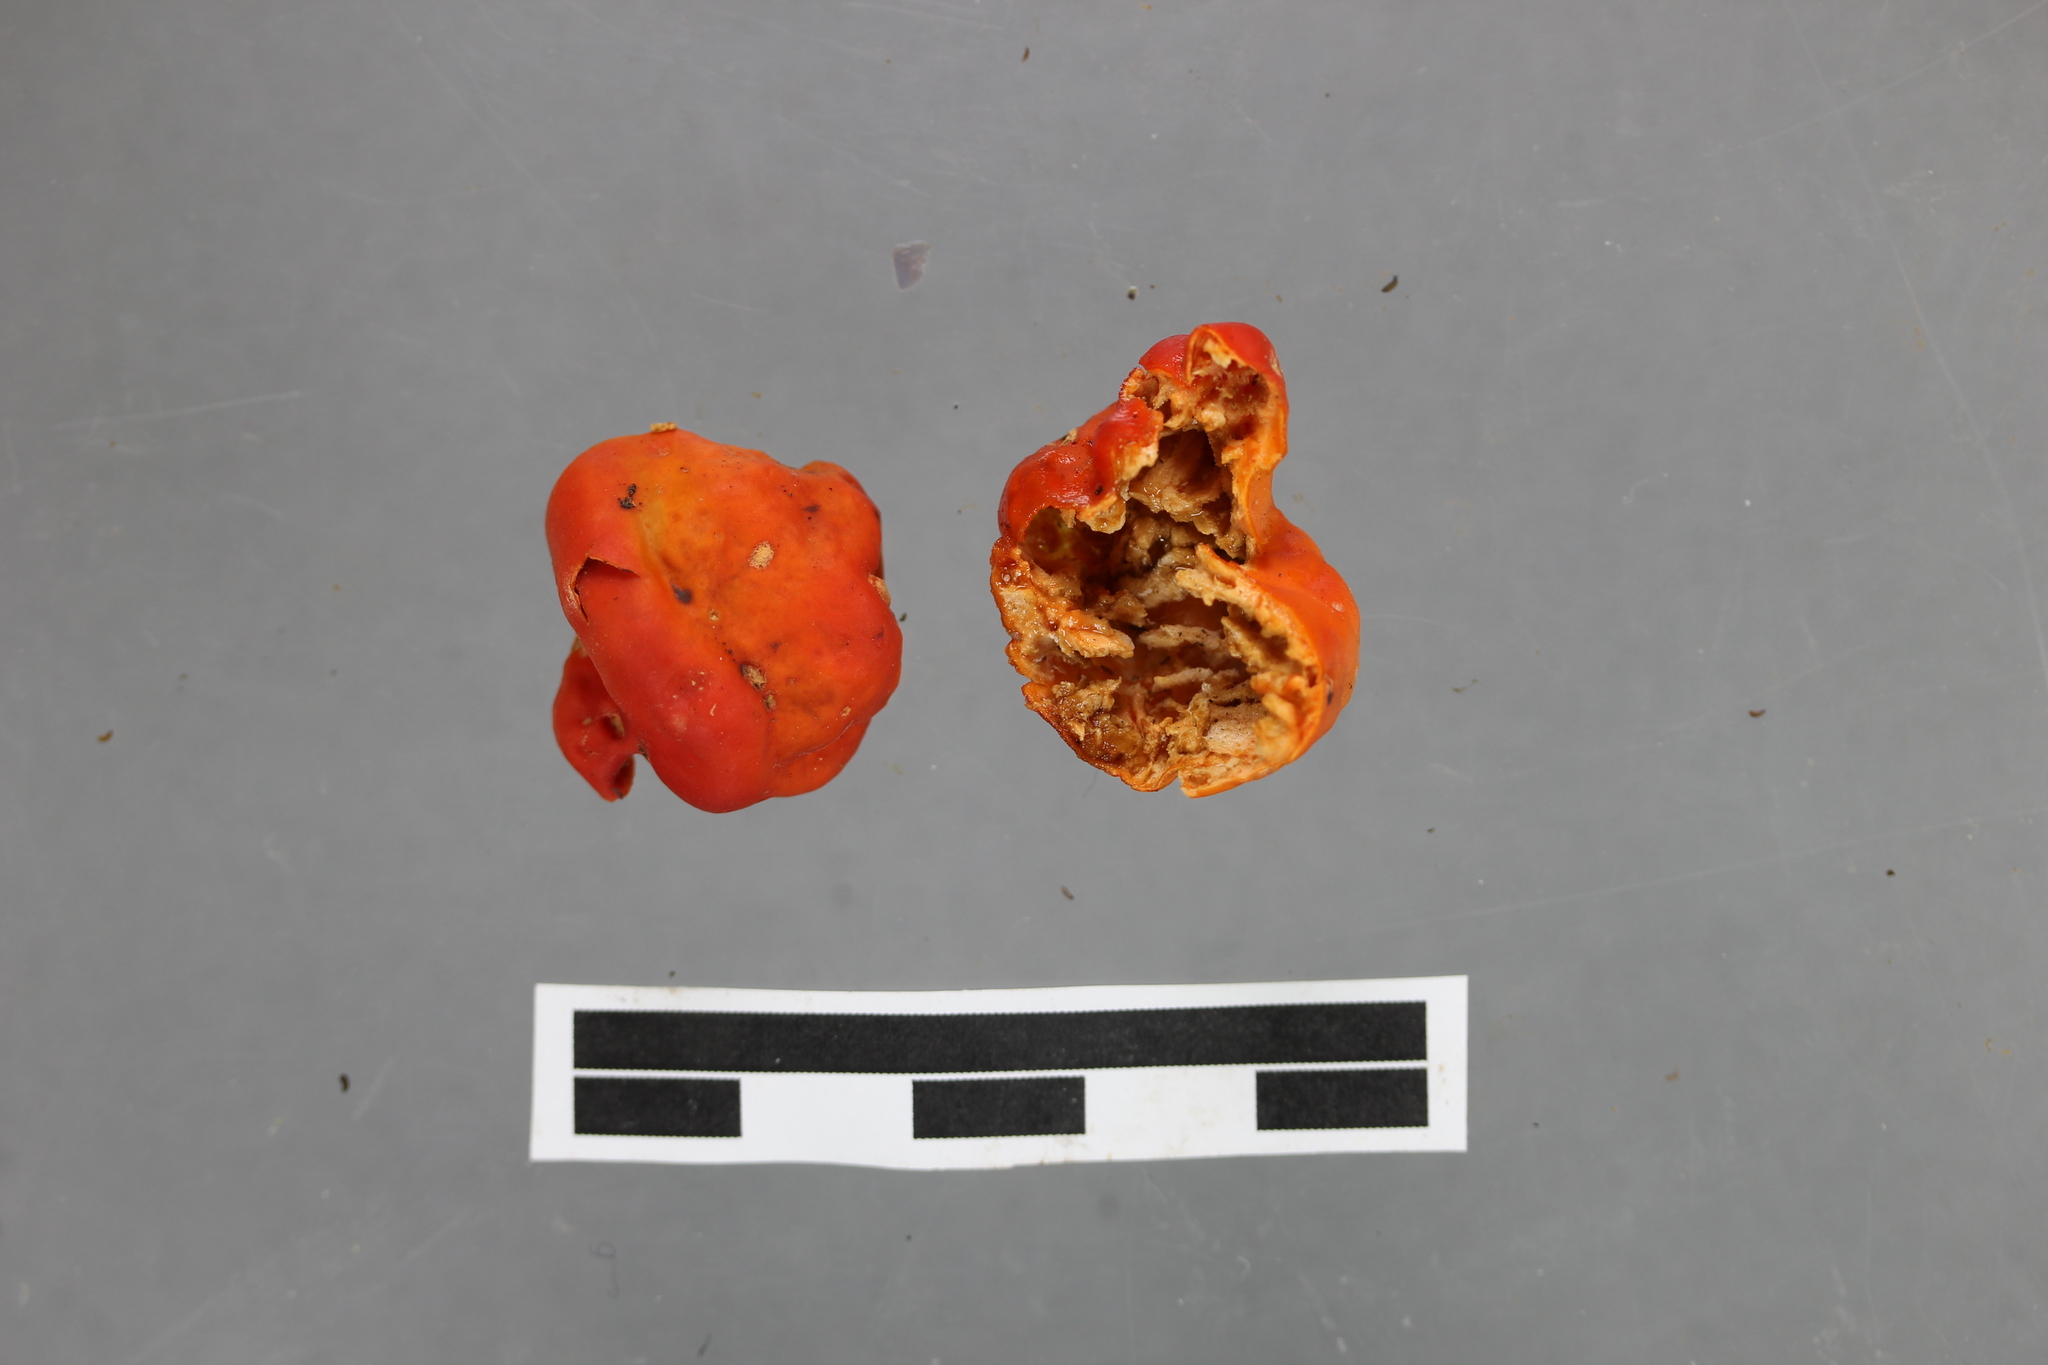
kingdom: Fungi
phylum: Ascomycota
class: Pezizomycetes
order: Pezizales
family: Pyronemataceae
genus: Paurocotylis
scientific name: Paurocotylis pila
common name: Scarlet berry truffle
